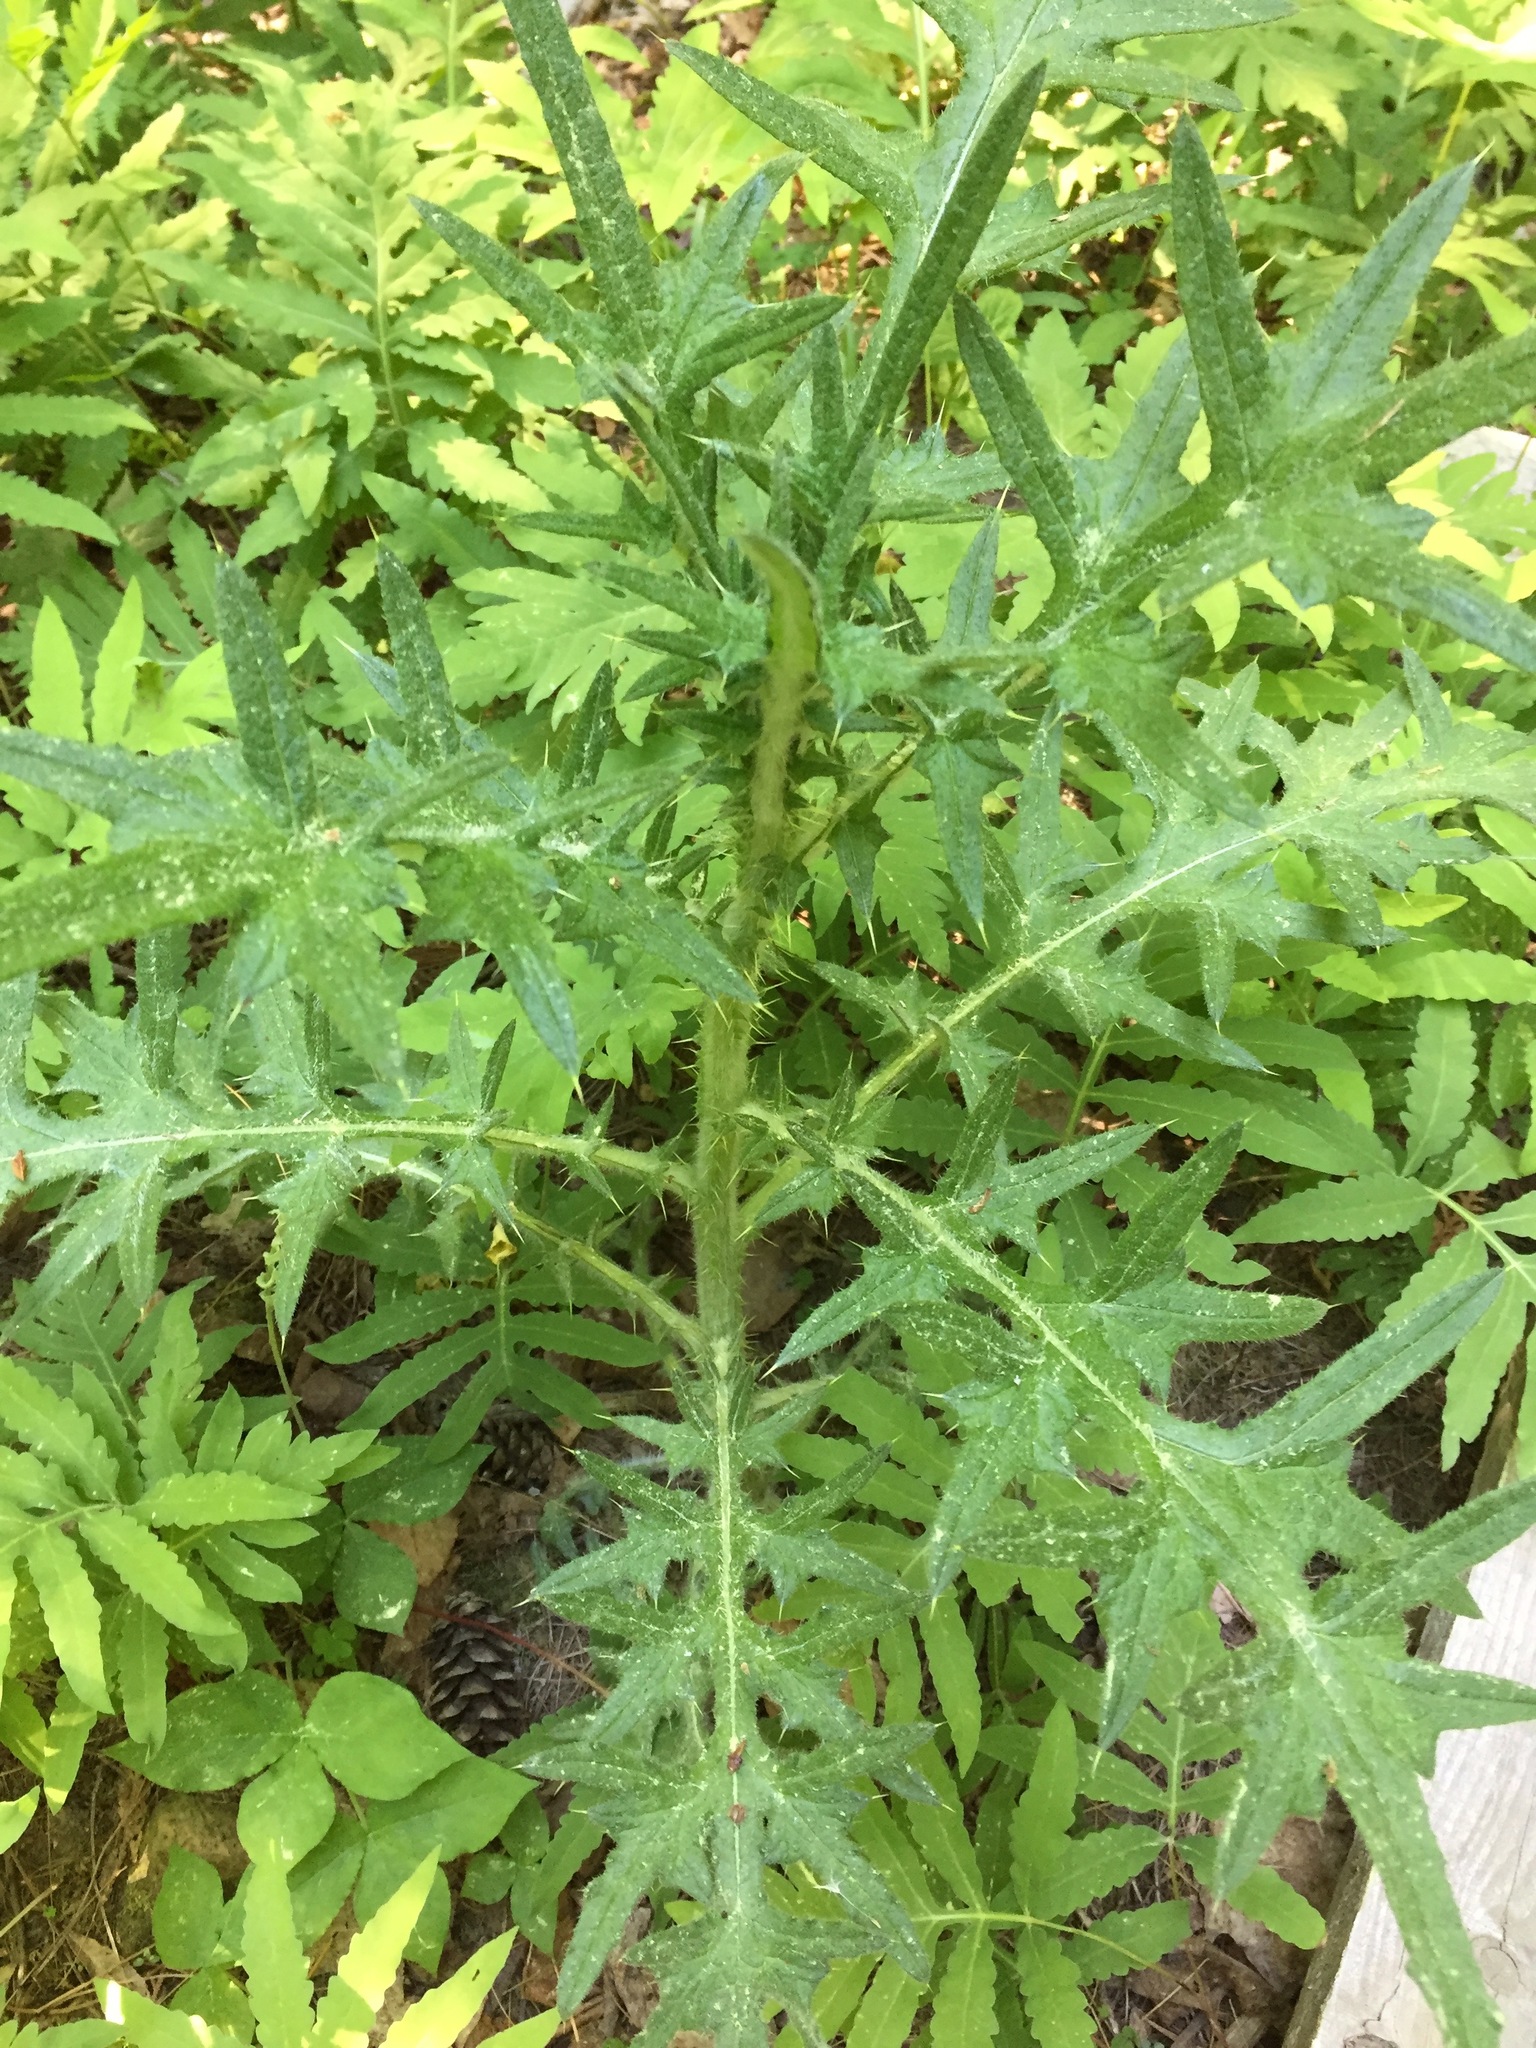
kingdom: Plantae
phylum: Tracheophyta
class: Magnoliopsida
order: Asterales
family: Asteraceae
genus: Cirsium
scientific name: Cirsium vulgare
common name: Bull thistle
